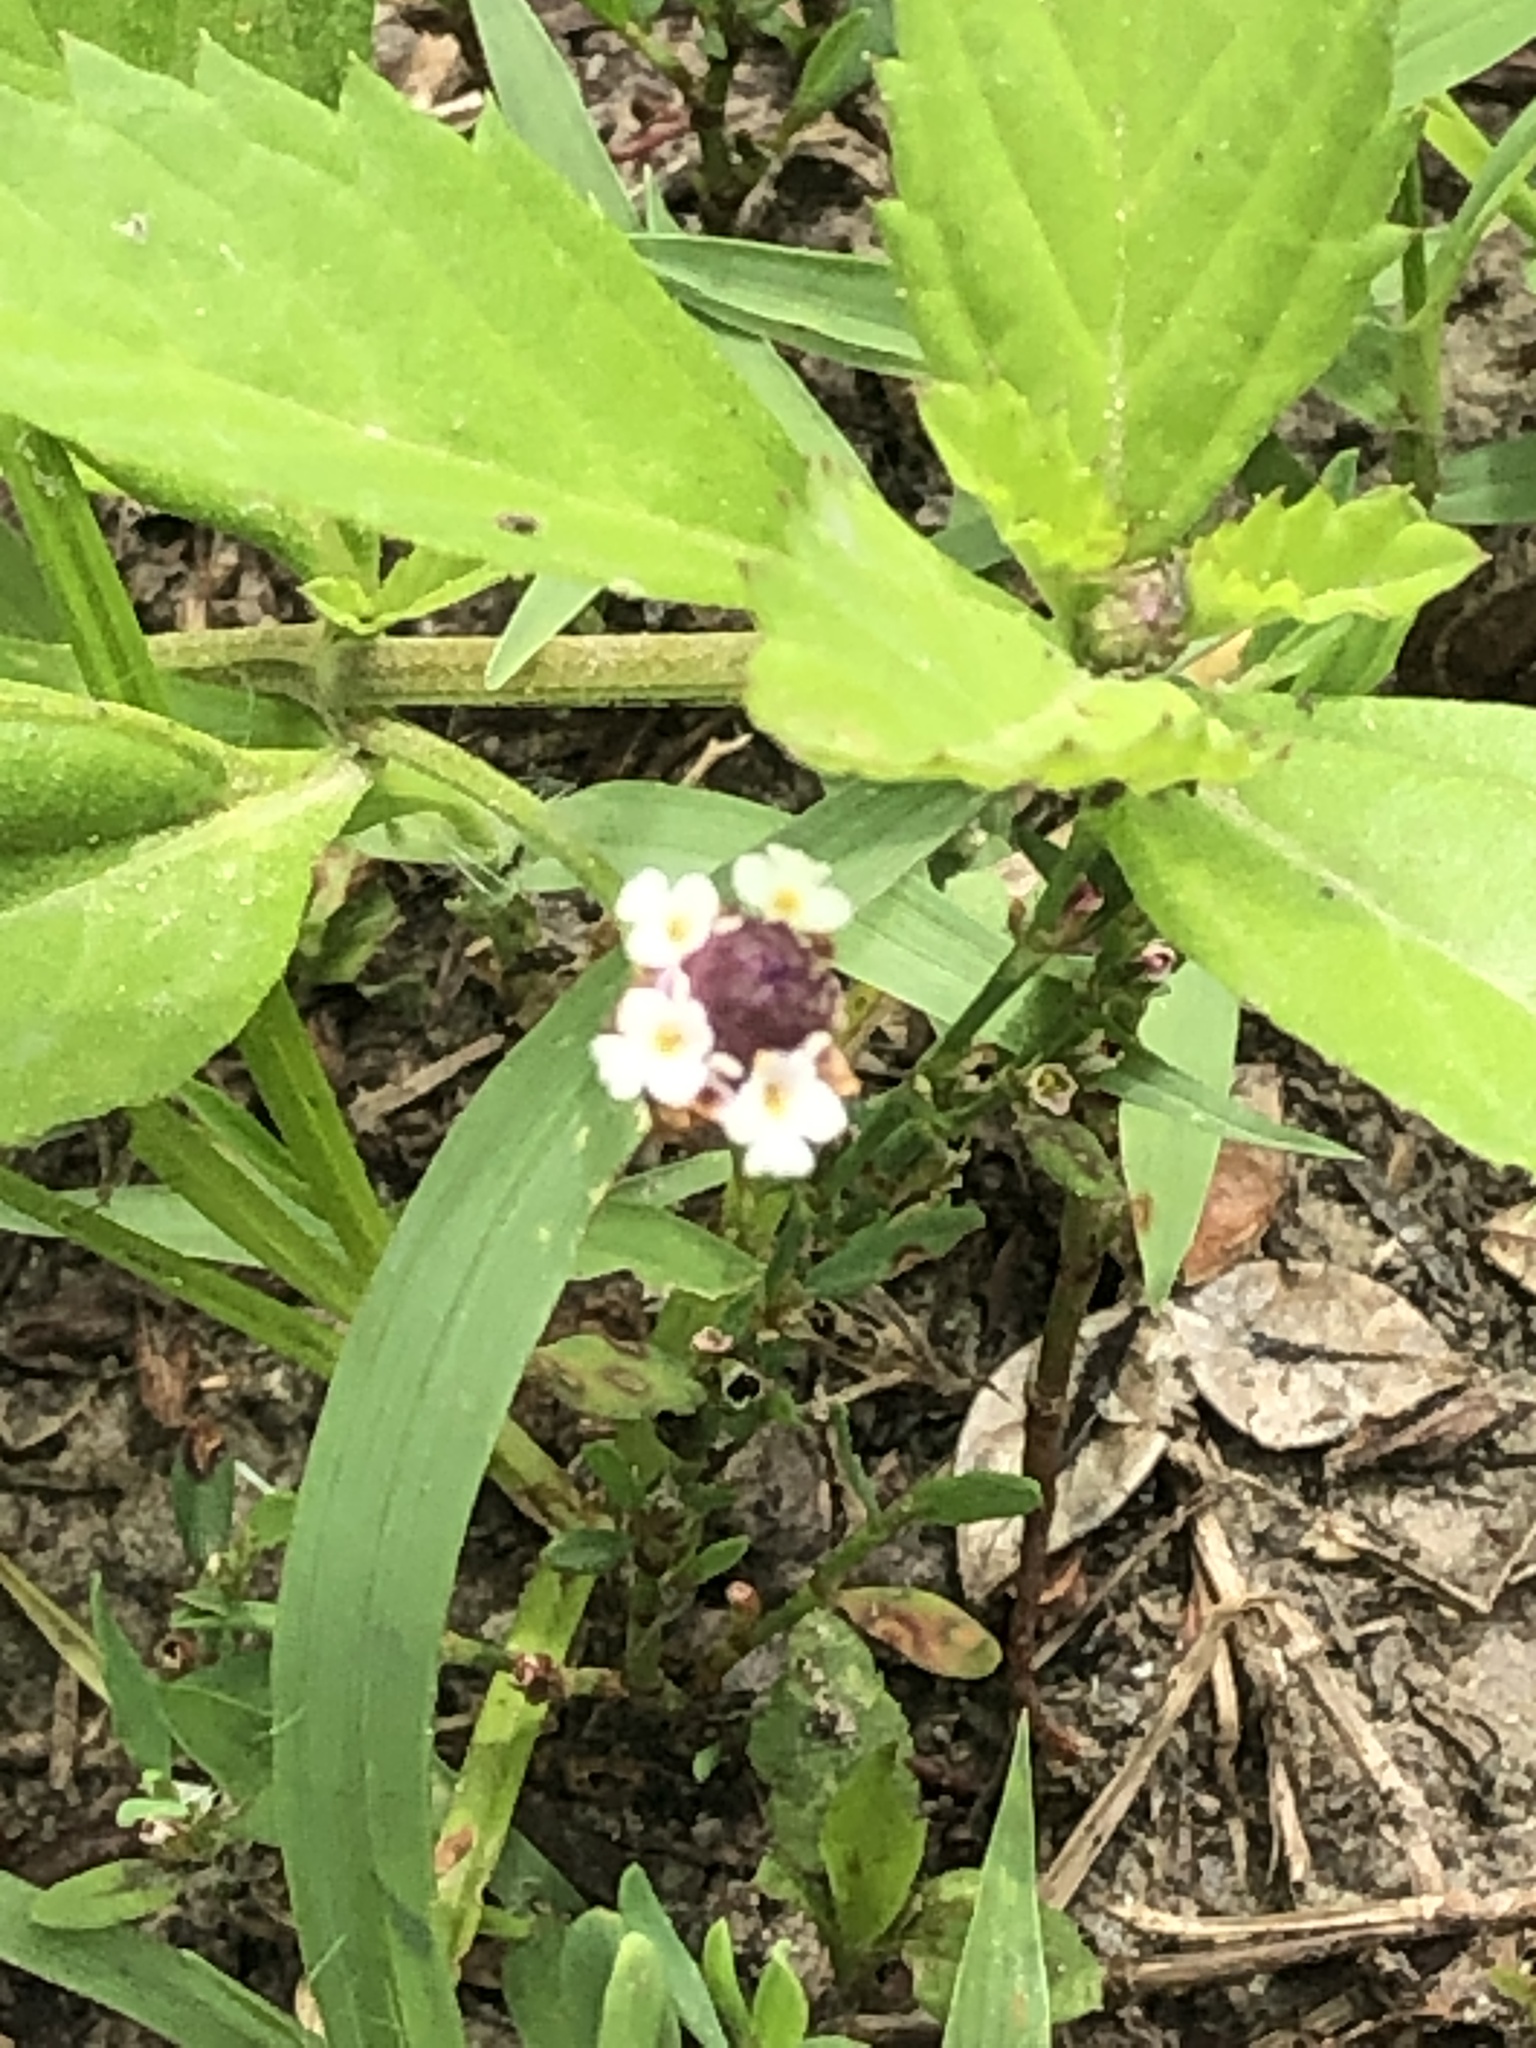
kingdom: Plantae
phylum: Tracheophyta
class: Magnoliopsida
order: Lamiales
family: Verbenaceae
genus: Phyla
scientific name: Phyla lanceolata
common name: Northern fogfruit
